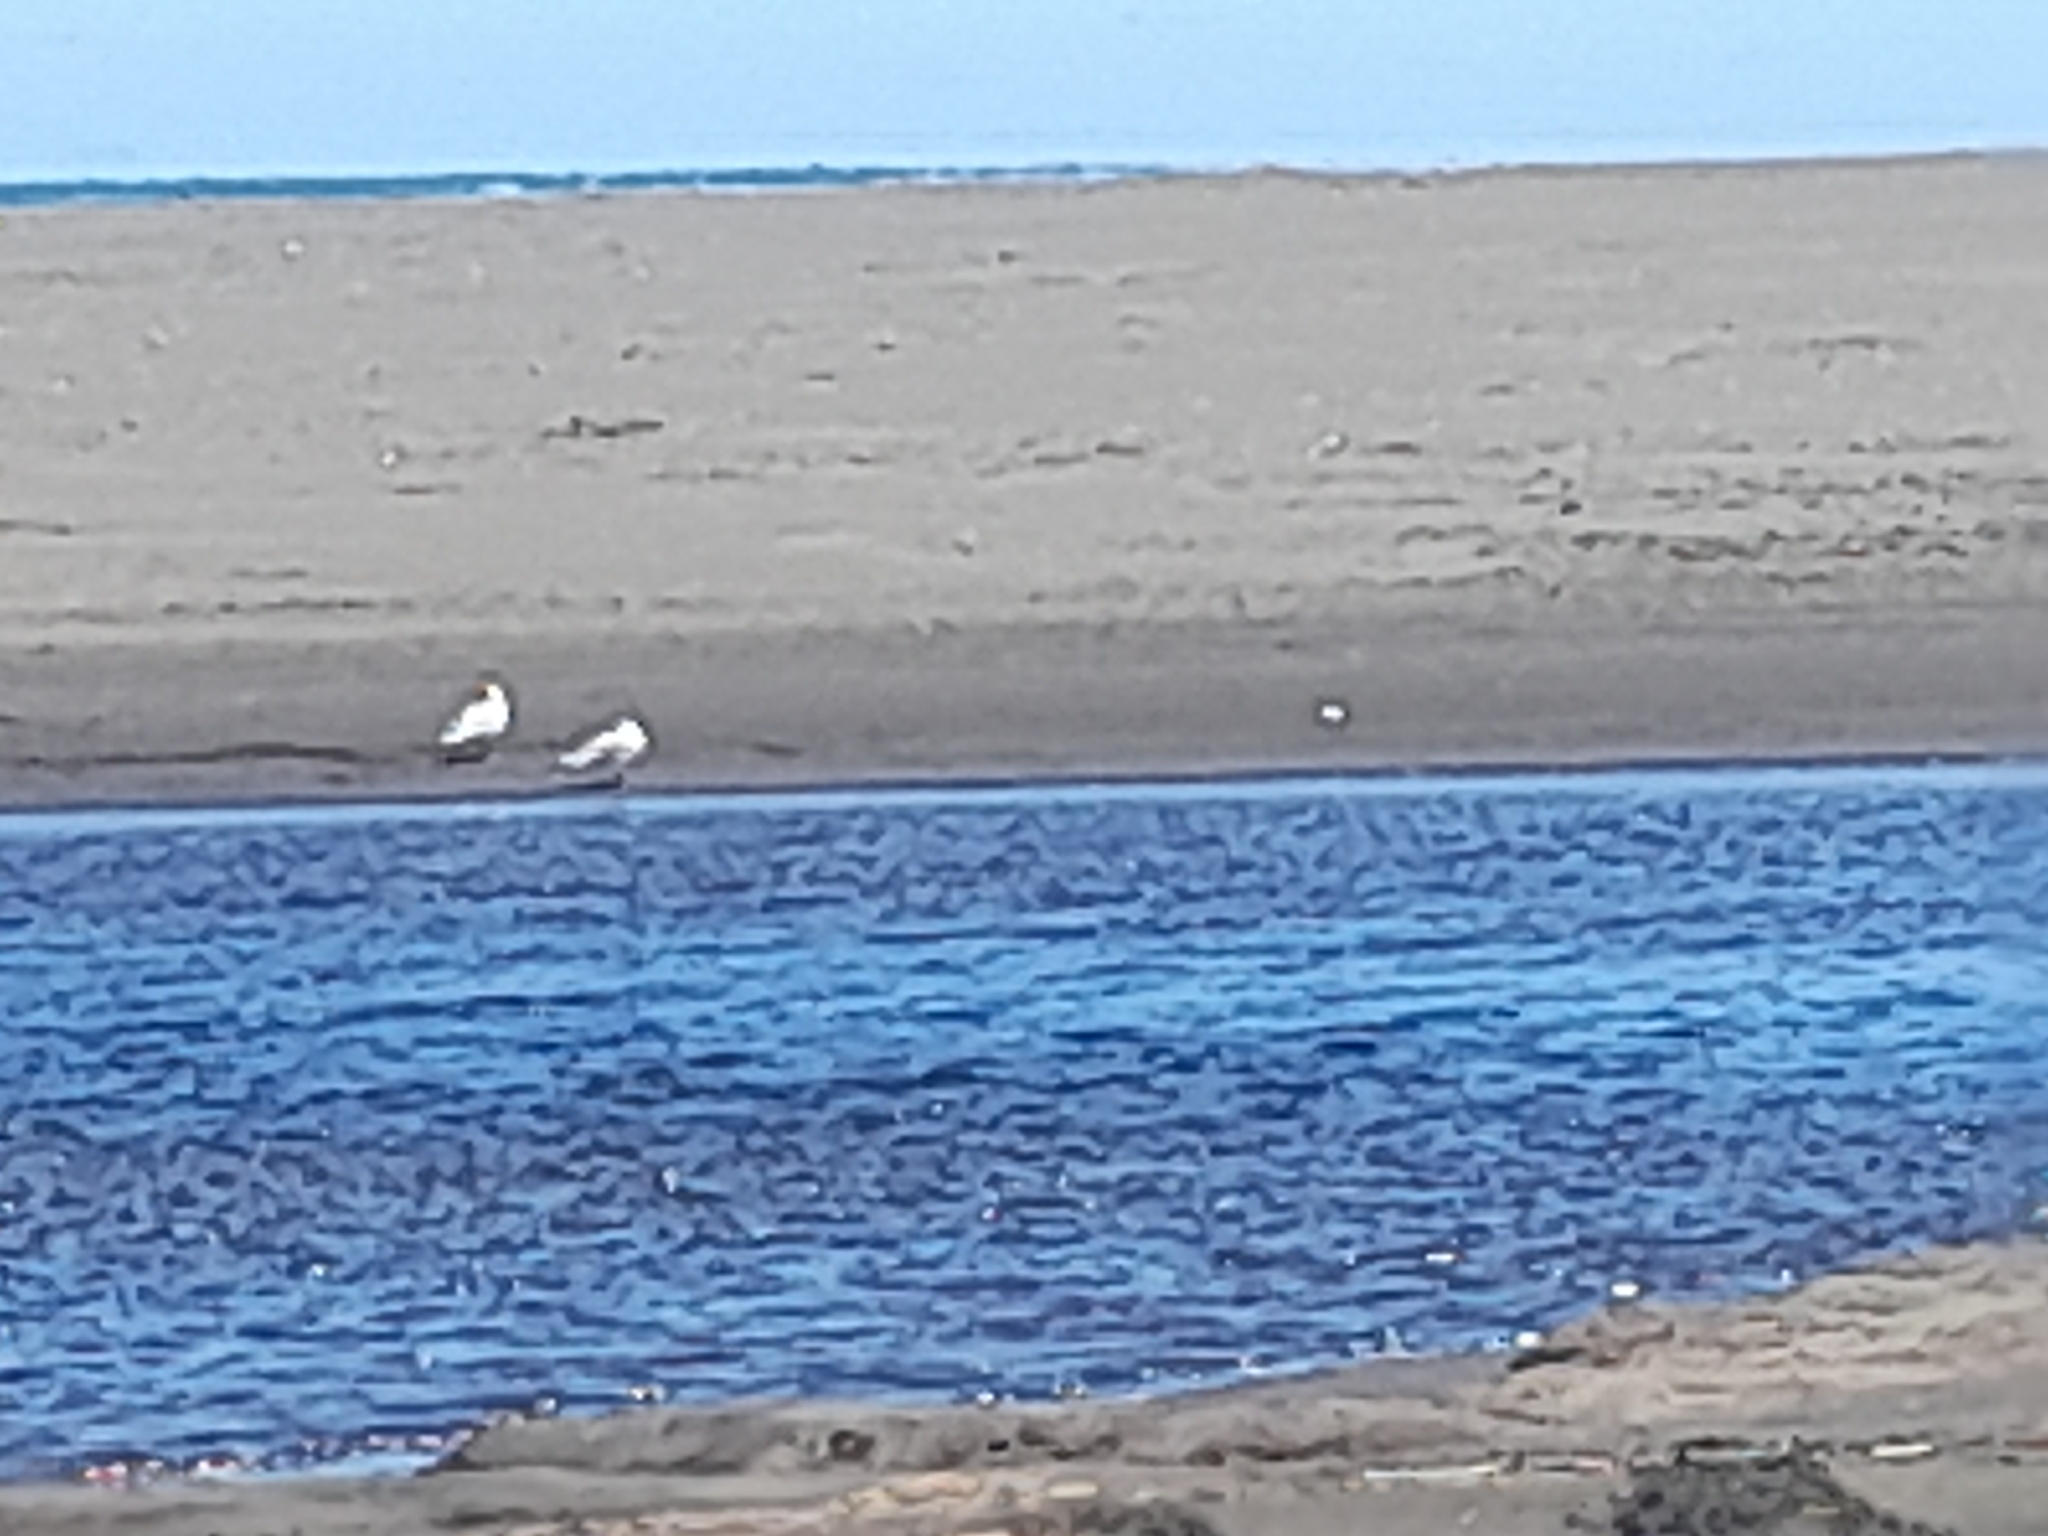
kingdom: Animalia
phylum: Chordata
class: Aves
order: Charadriiformes
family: Laridae
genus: Chroicocephalus
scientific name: Chroicocephalus maculipennis
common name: Brown-hooded gull
